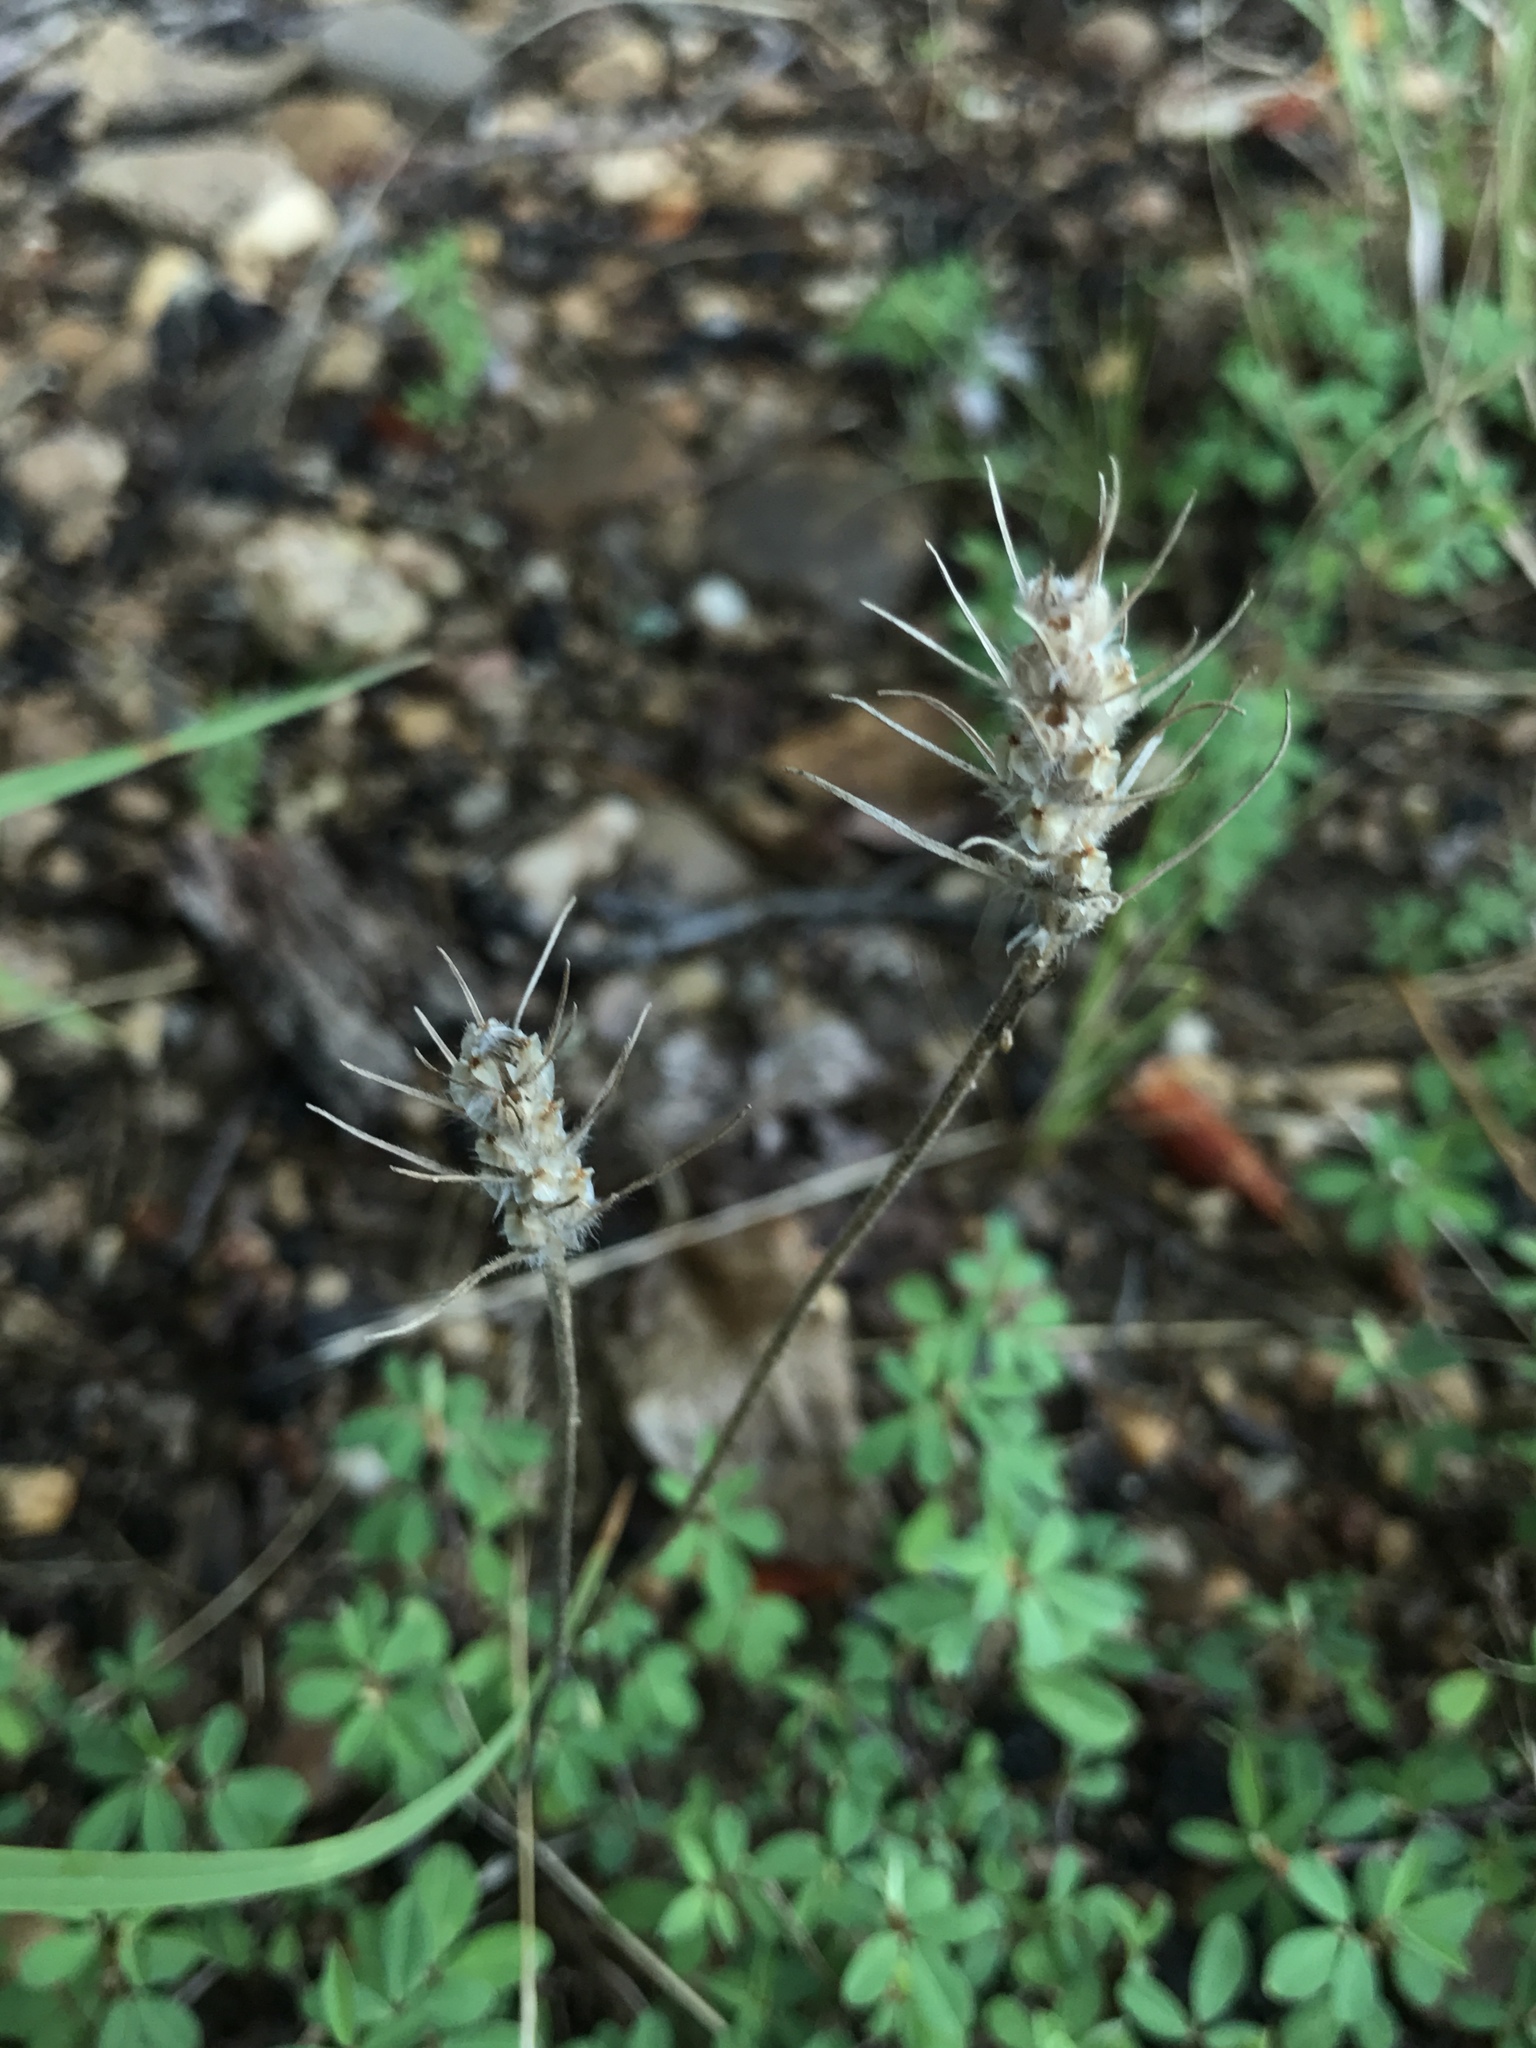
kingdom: Plantae
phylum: Tracheophyta
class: Magnoliopsida
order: Lamiales
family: Plantaginaceae
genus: Plantago
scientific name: Plantago aristata
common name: Bracted plantain
